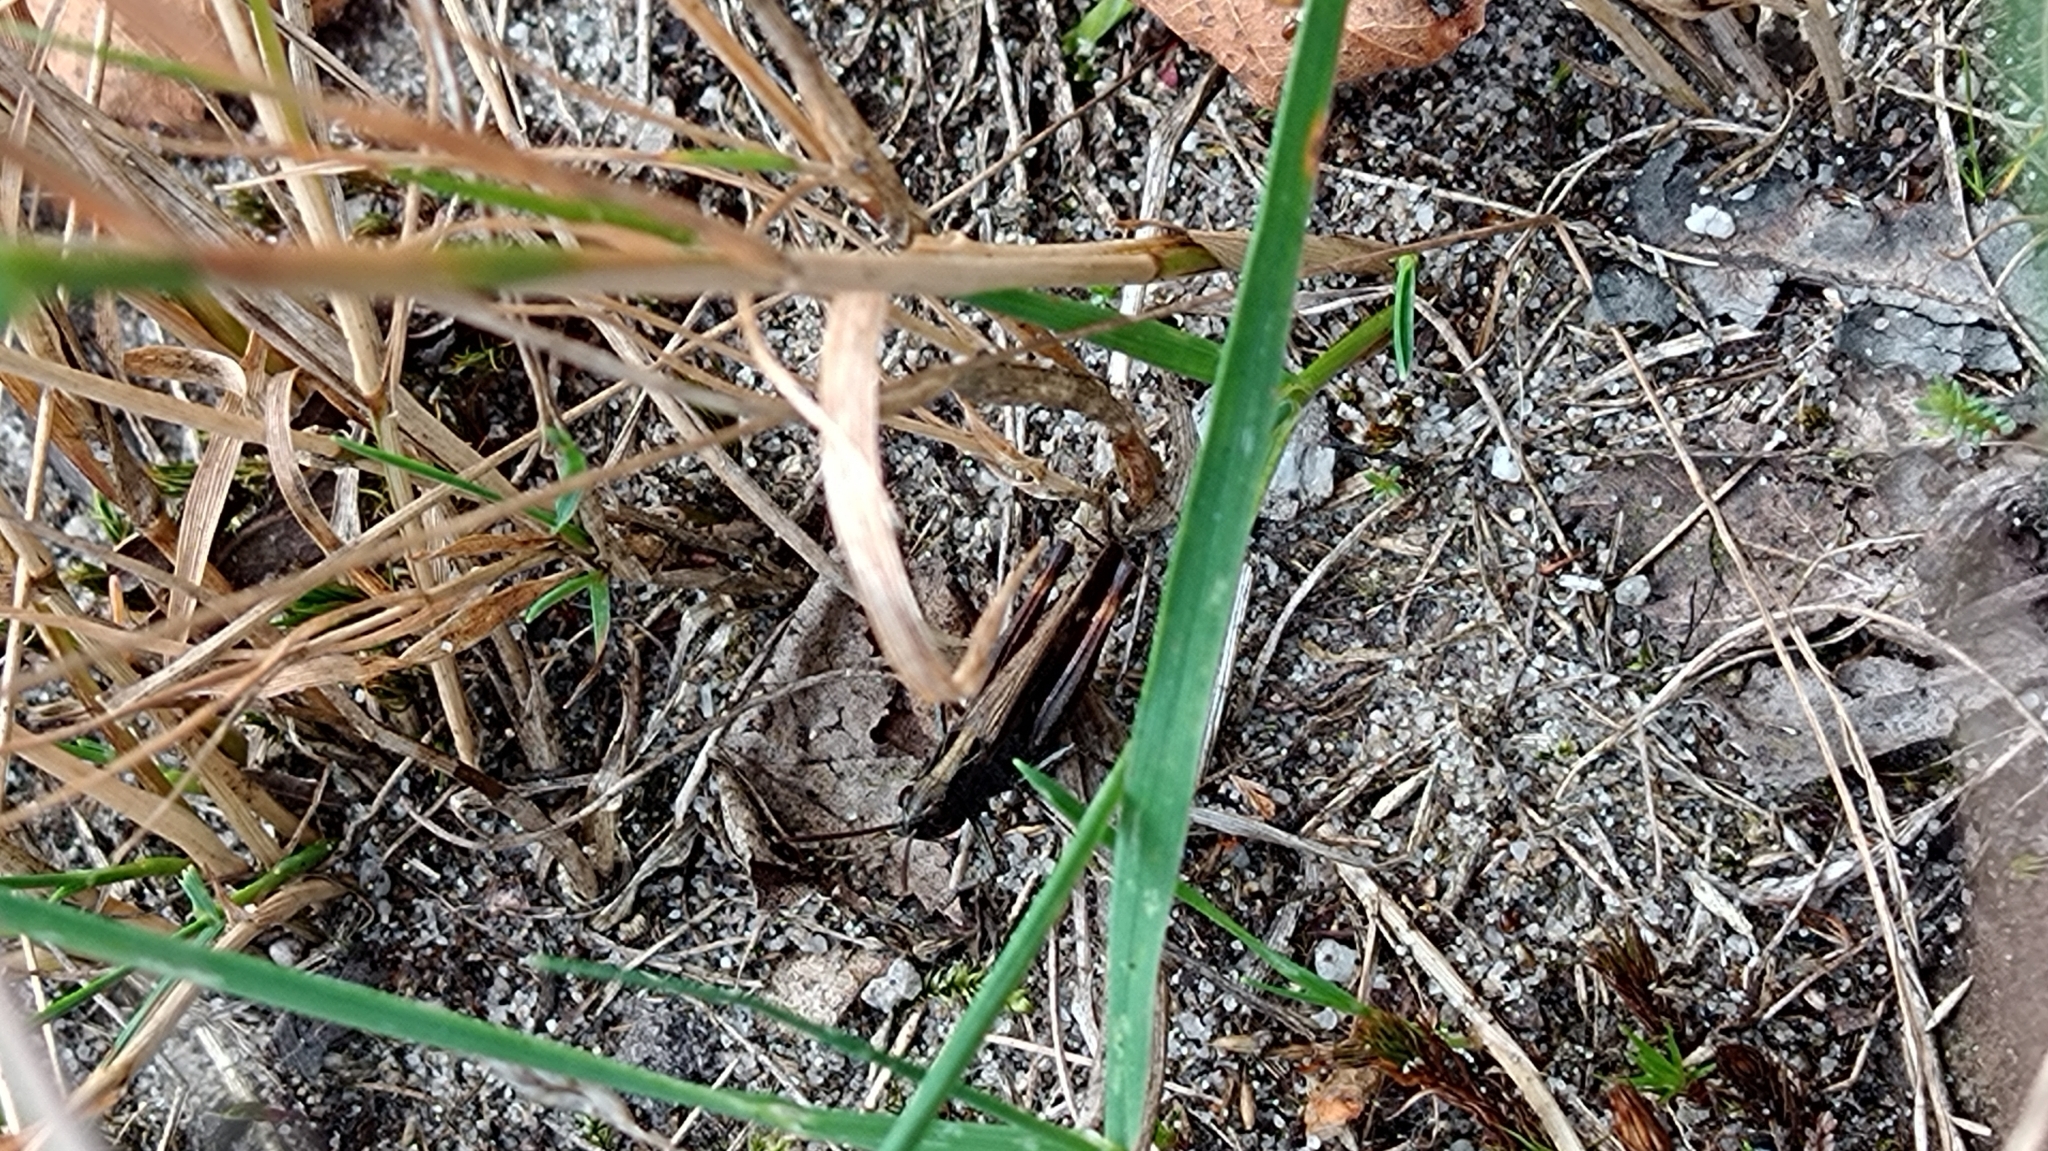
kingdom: Animalia
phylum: Arthropoda
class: Insecta
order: Orthoptera
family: Acrididae
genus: Omocestus
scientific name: Omocestus rufipes
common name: Woodland grasshopper
